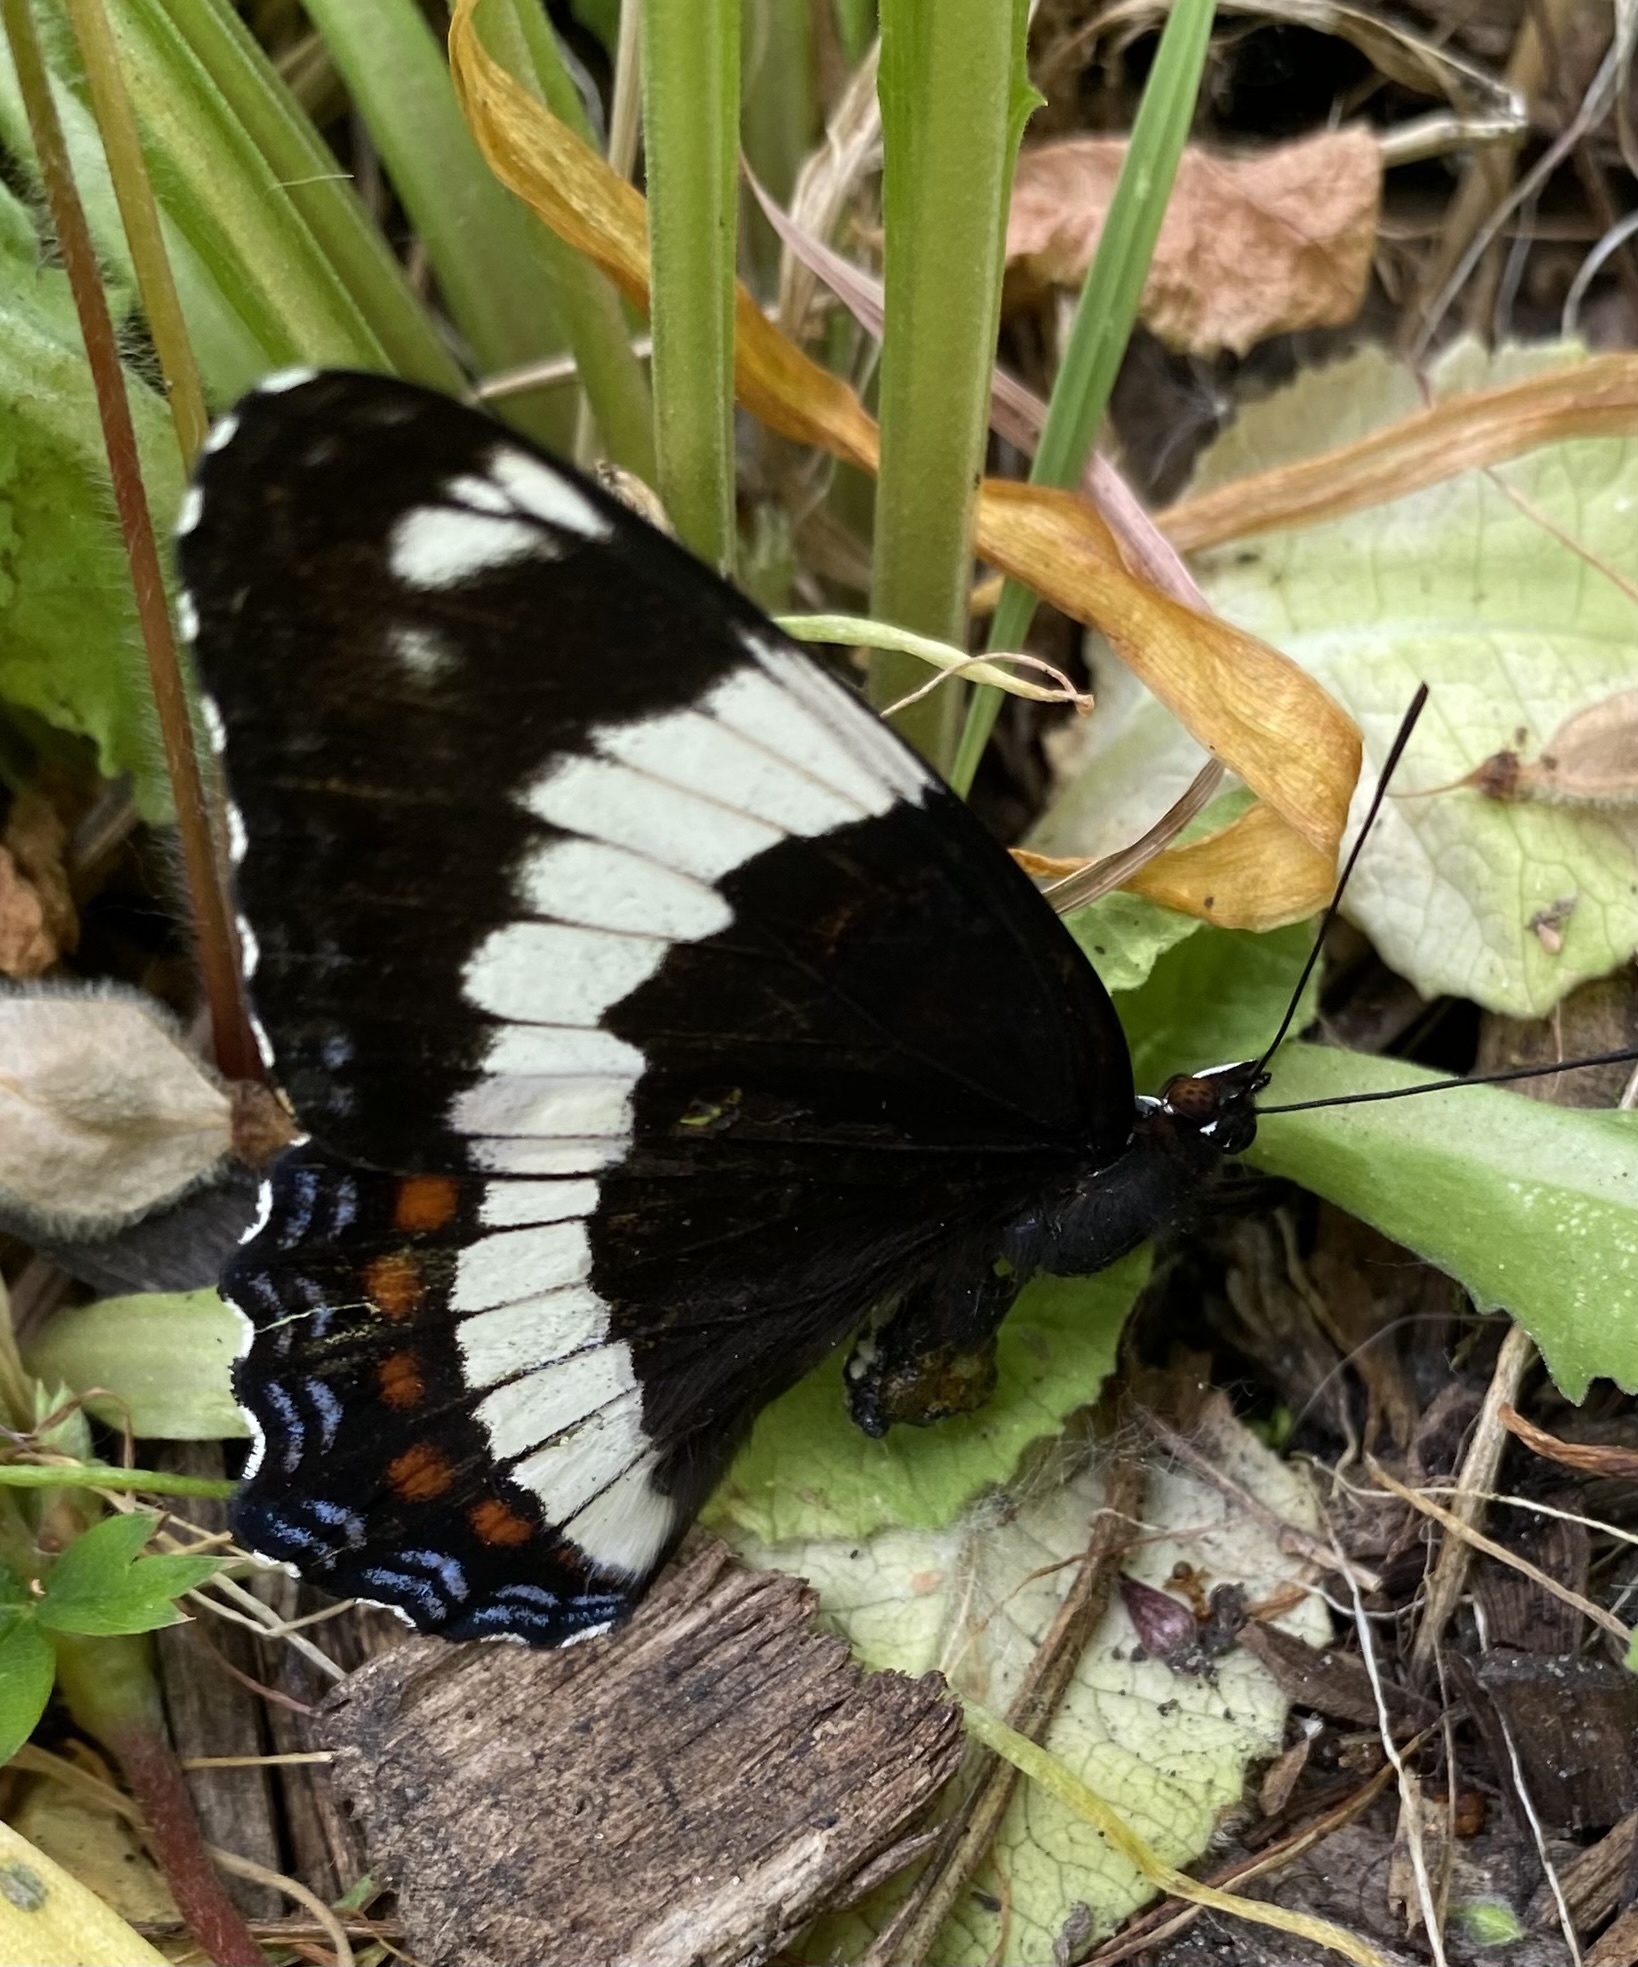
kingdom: Animalia
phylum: Arthropoda
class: Insecta
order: Lepidoptera
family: Nymphalidae
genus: Limenitis
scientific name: Limenitis arthemis
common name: Red-spotted admiral
